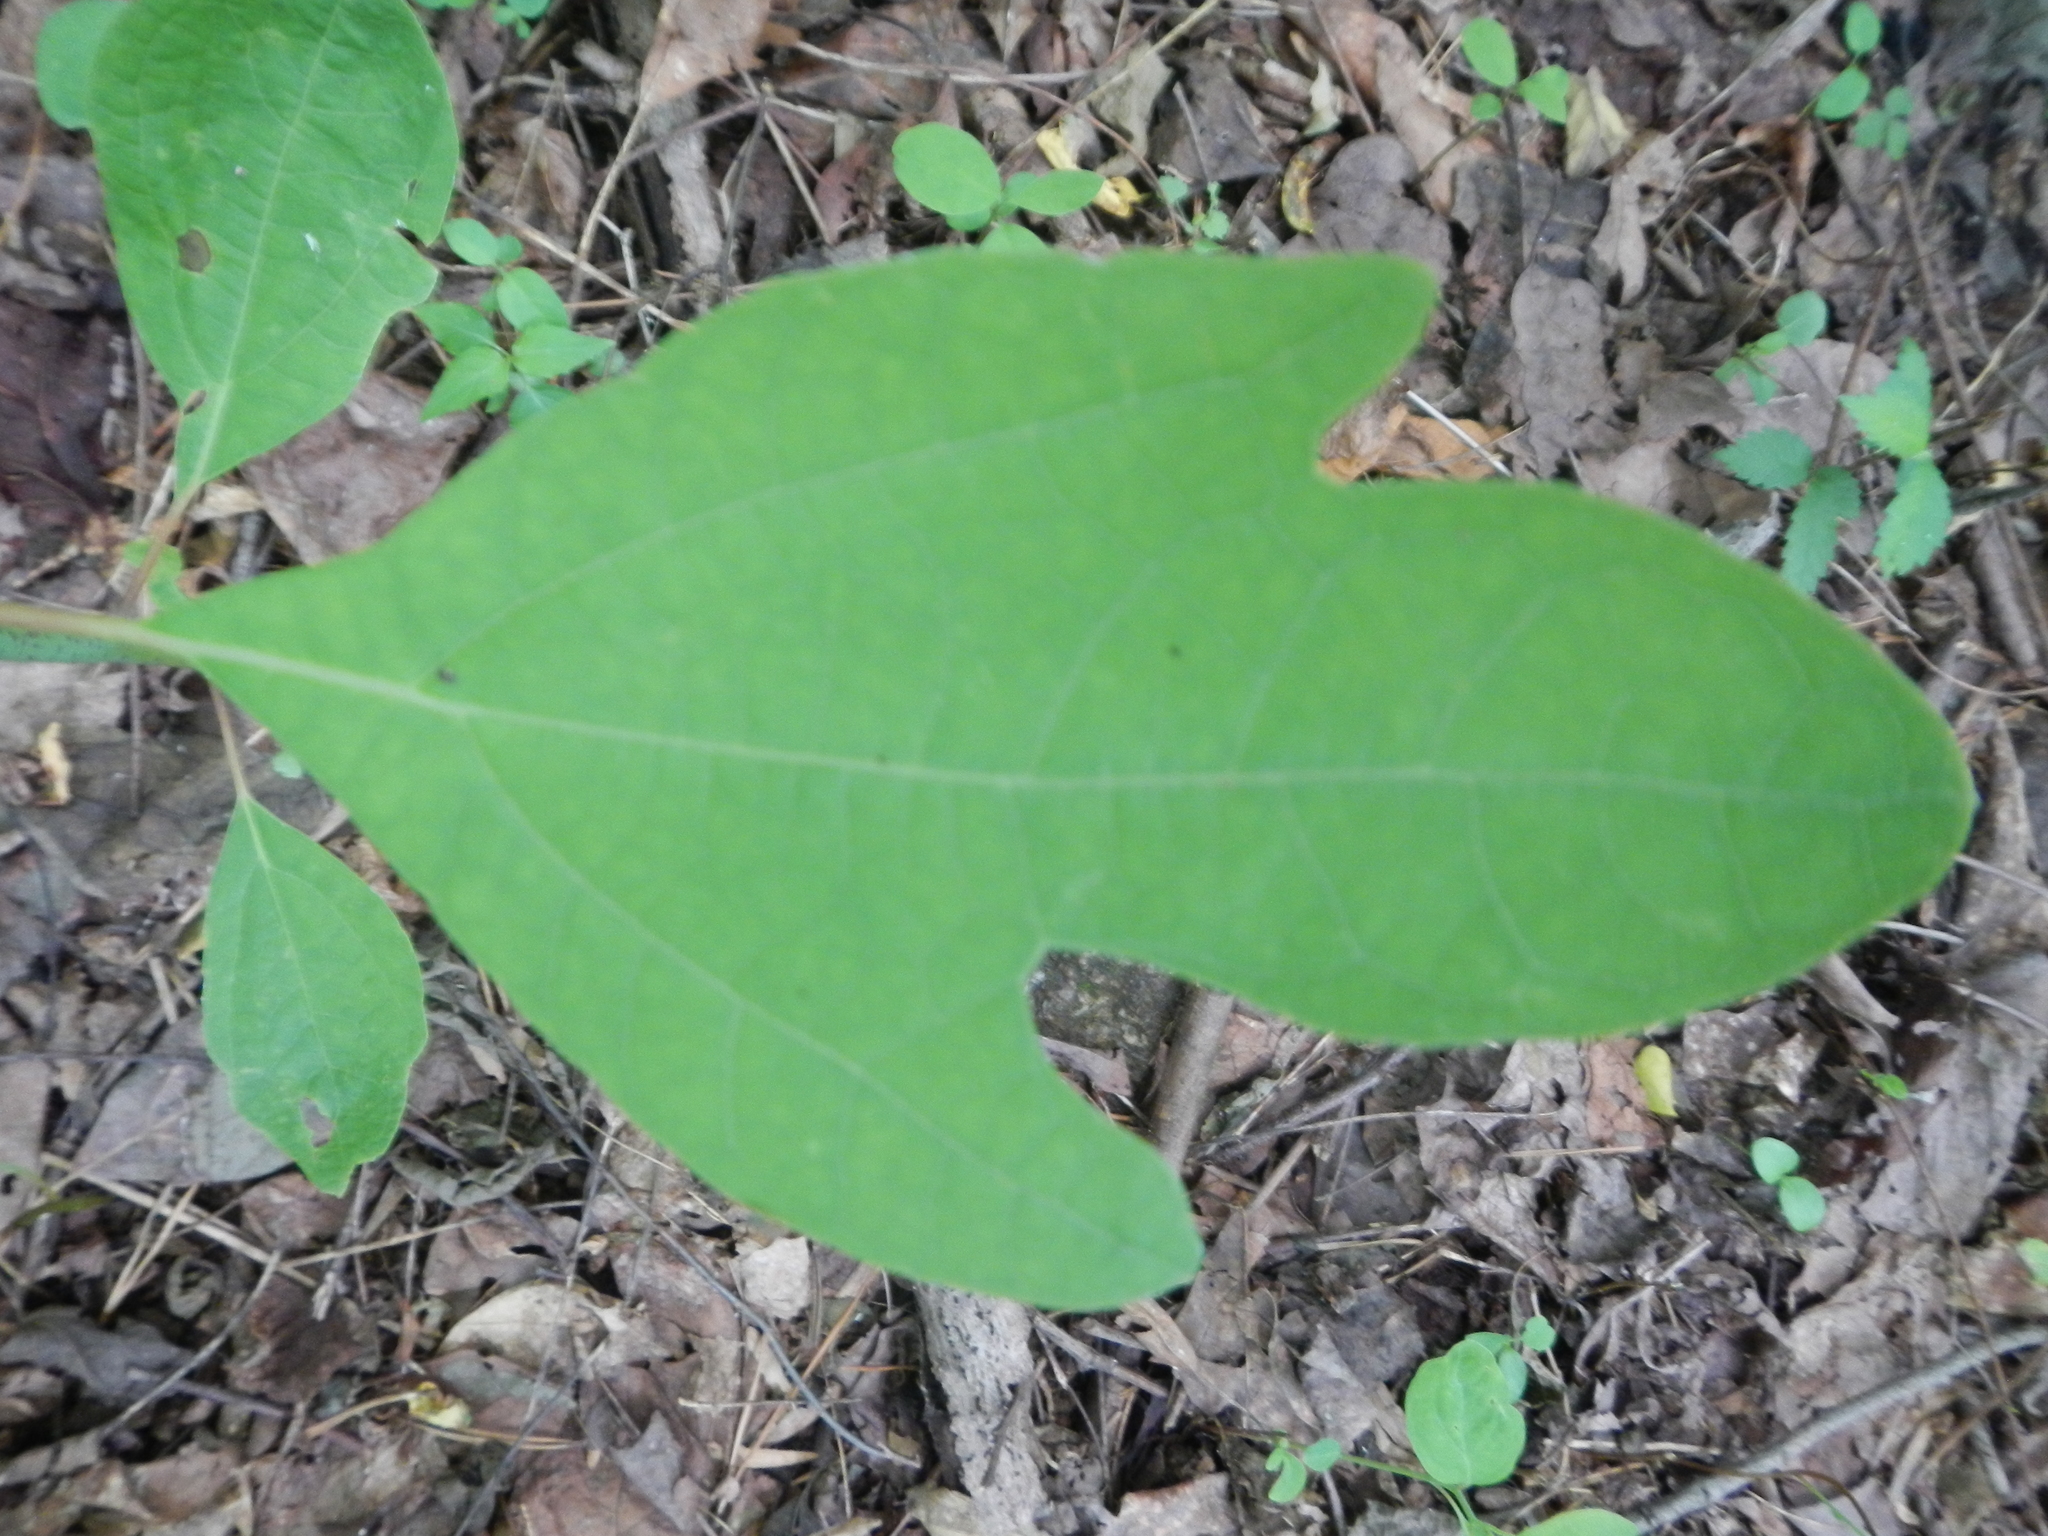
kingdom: Plantae
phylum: Tracheophyta
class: Magnoliopsida
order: Laurales
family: Lauraceae
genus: Sassafras
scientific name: Sassafras albidum
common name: Sassafras
